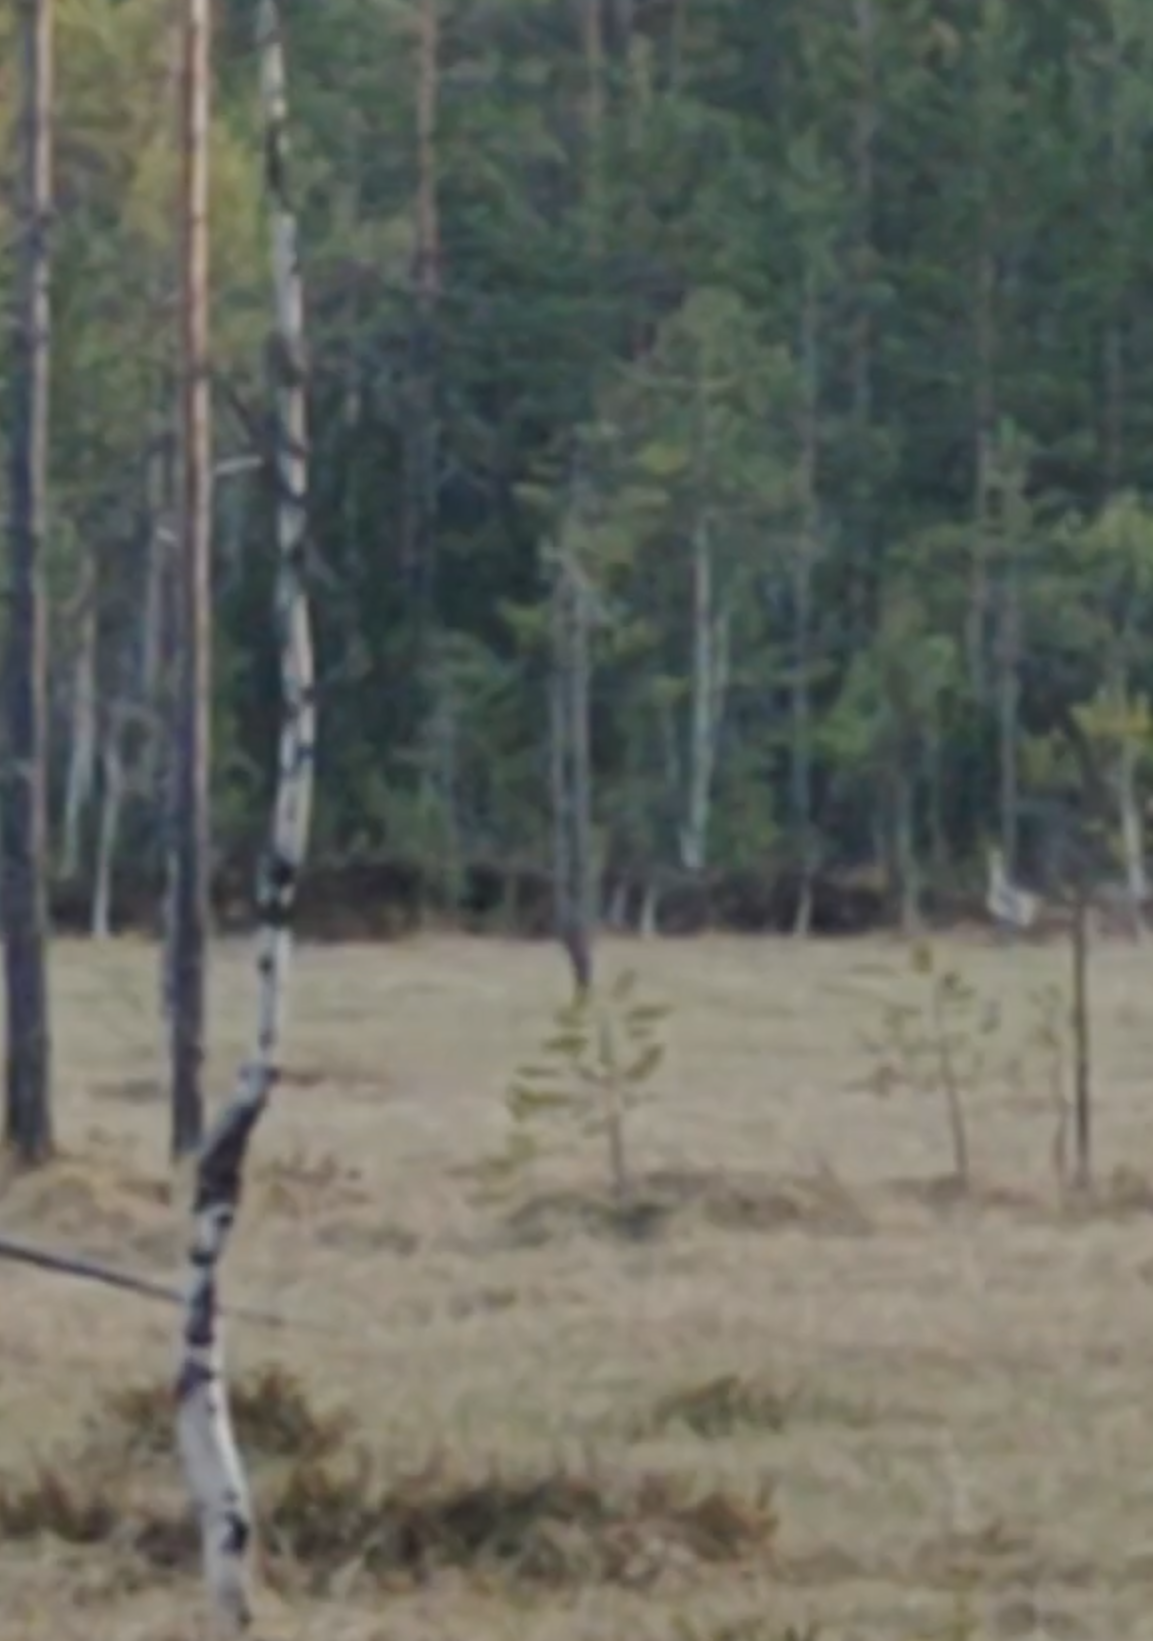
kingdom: Animalia
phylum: Chordata
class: Aves
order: Gruiformes
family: Gruidae
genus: Grus
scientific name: Grus grus
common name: Common crane
